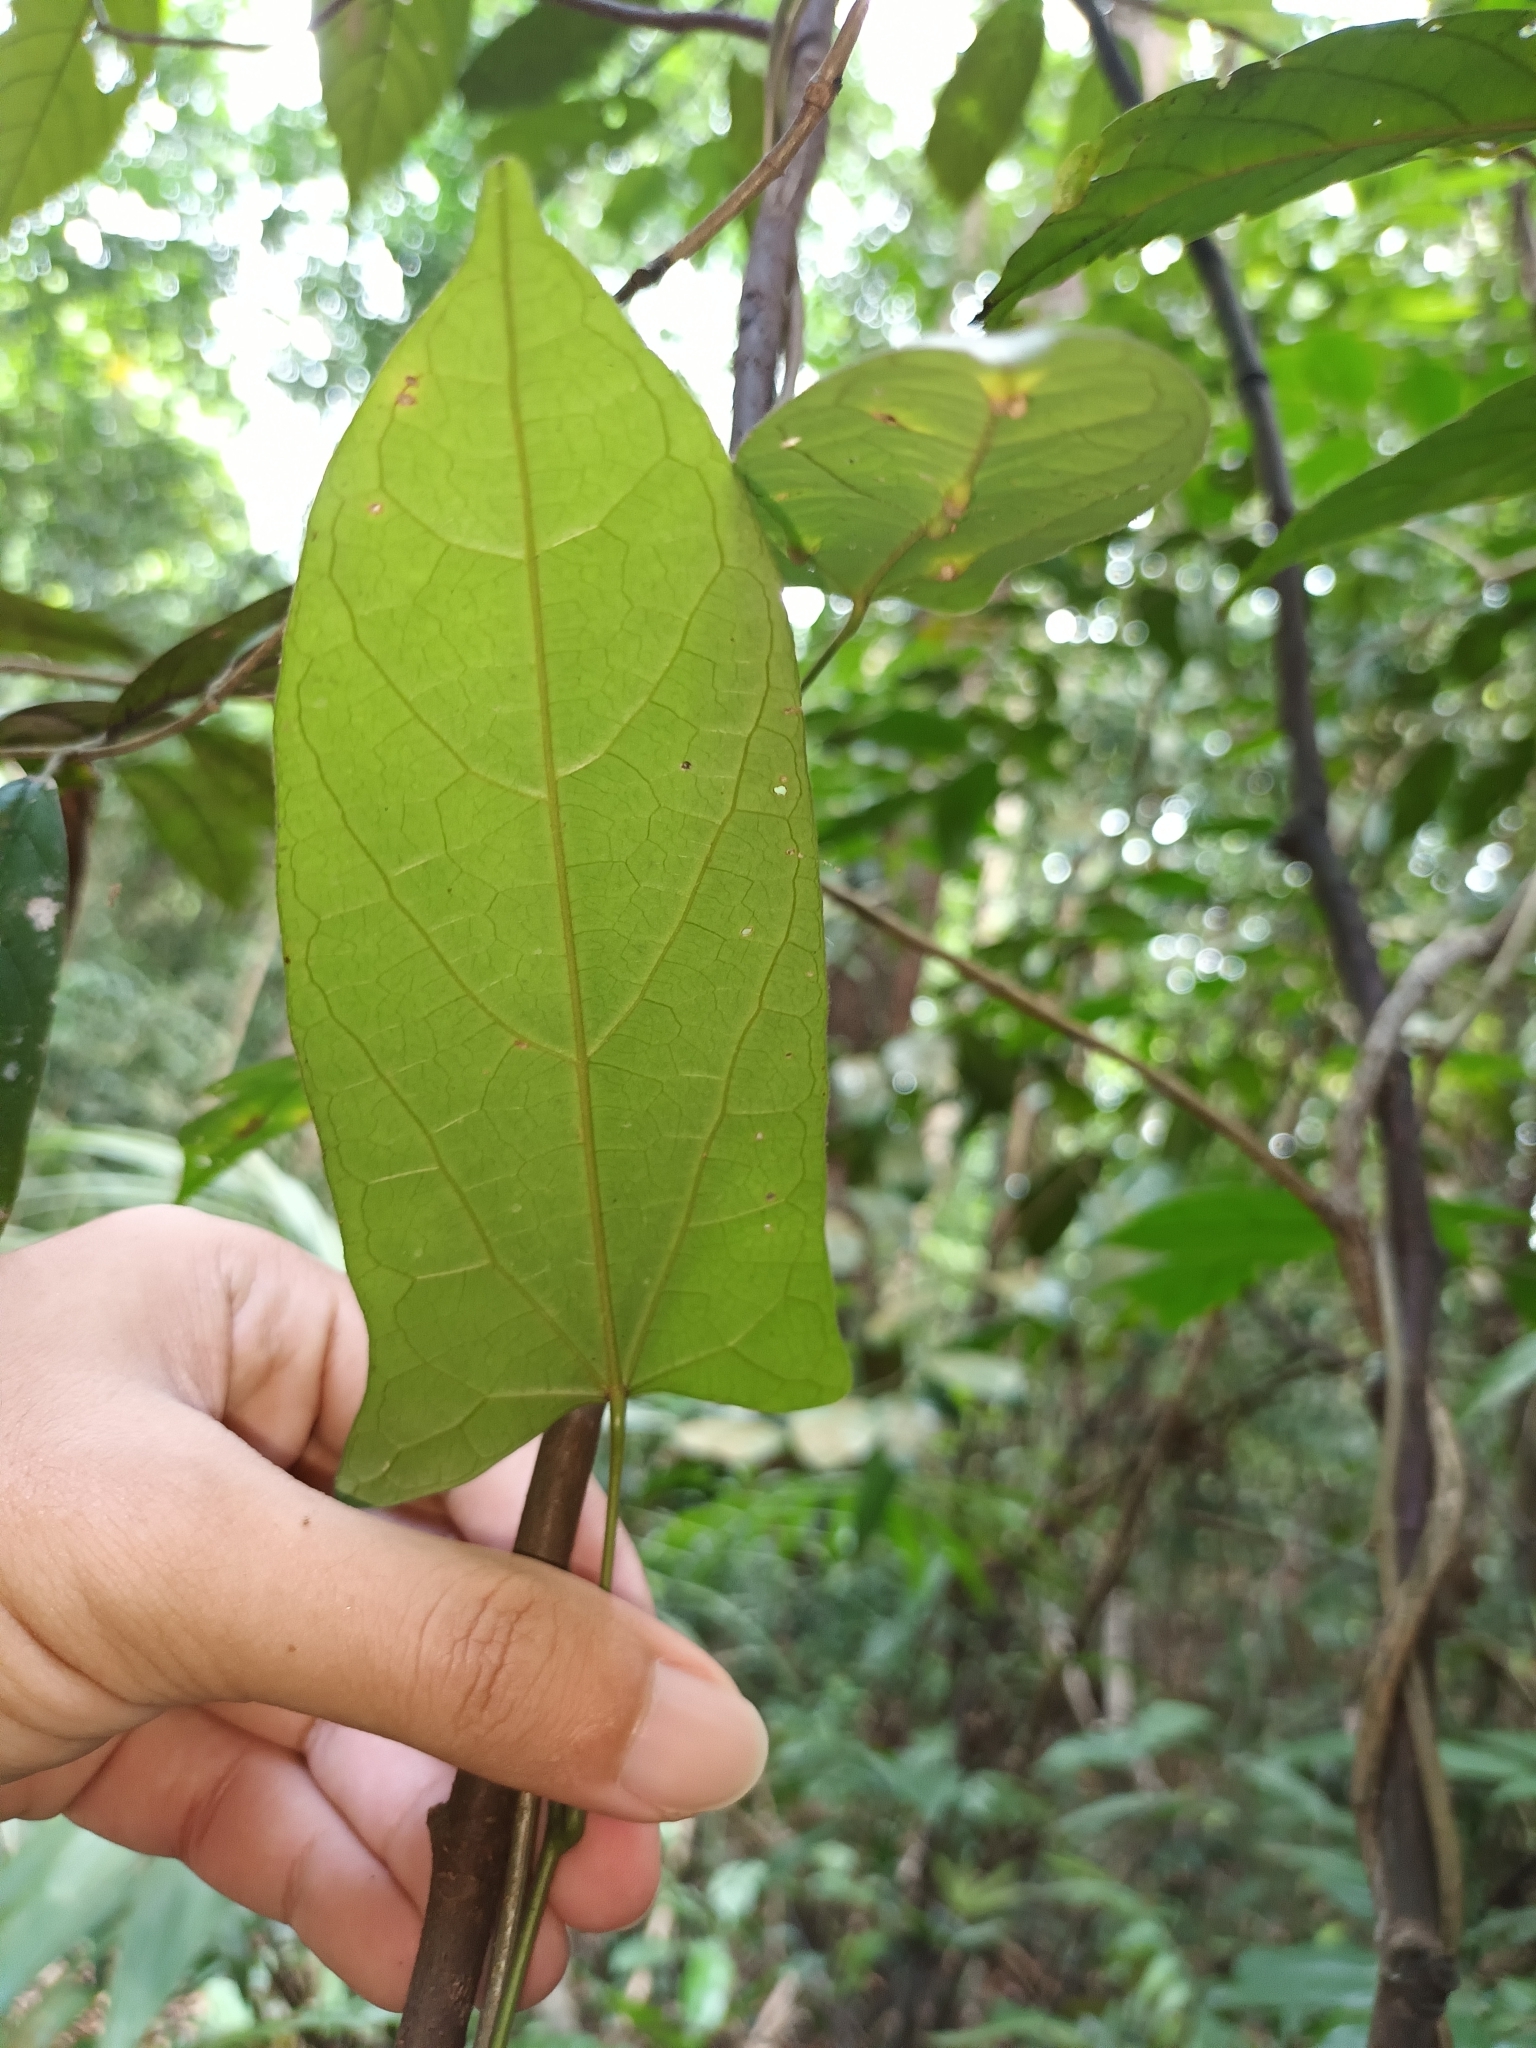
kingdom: Plantae
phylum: Tracheophyta
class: Magnoliopsida
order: Ranunculales
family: Menispermaceae
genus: Tinomiscium
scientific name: Tinomiscium petiolare
